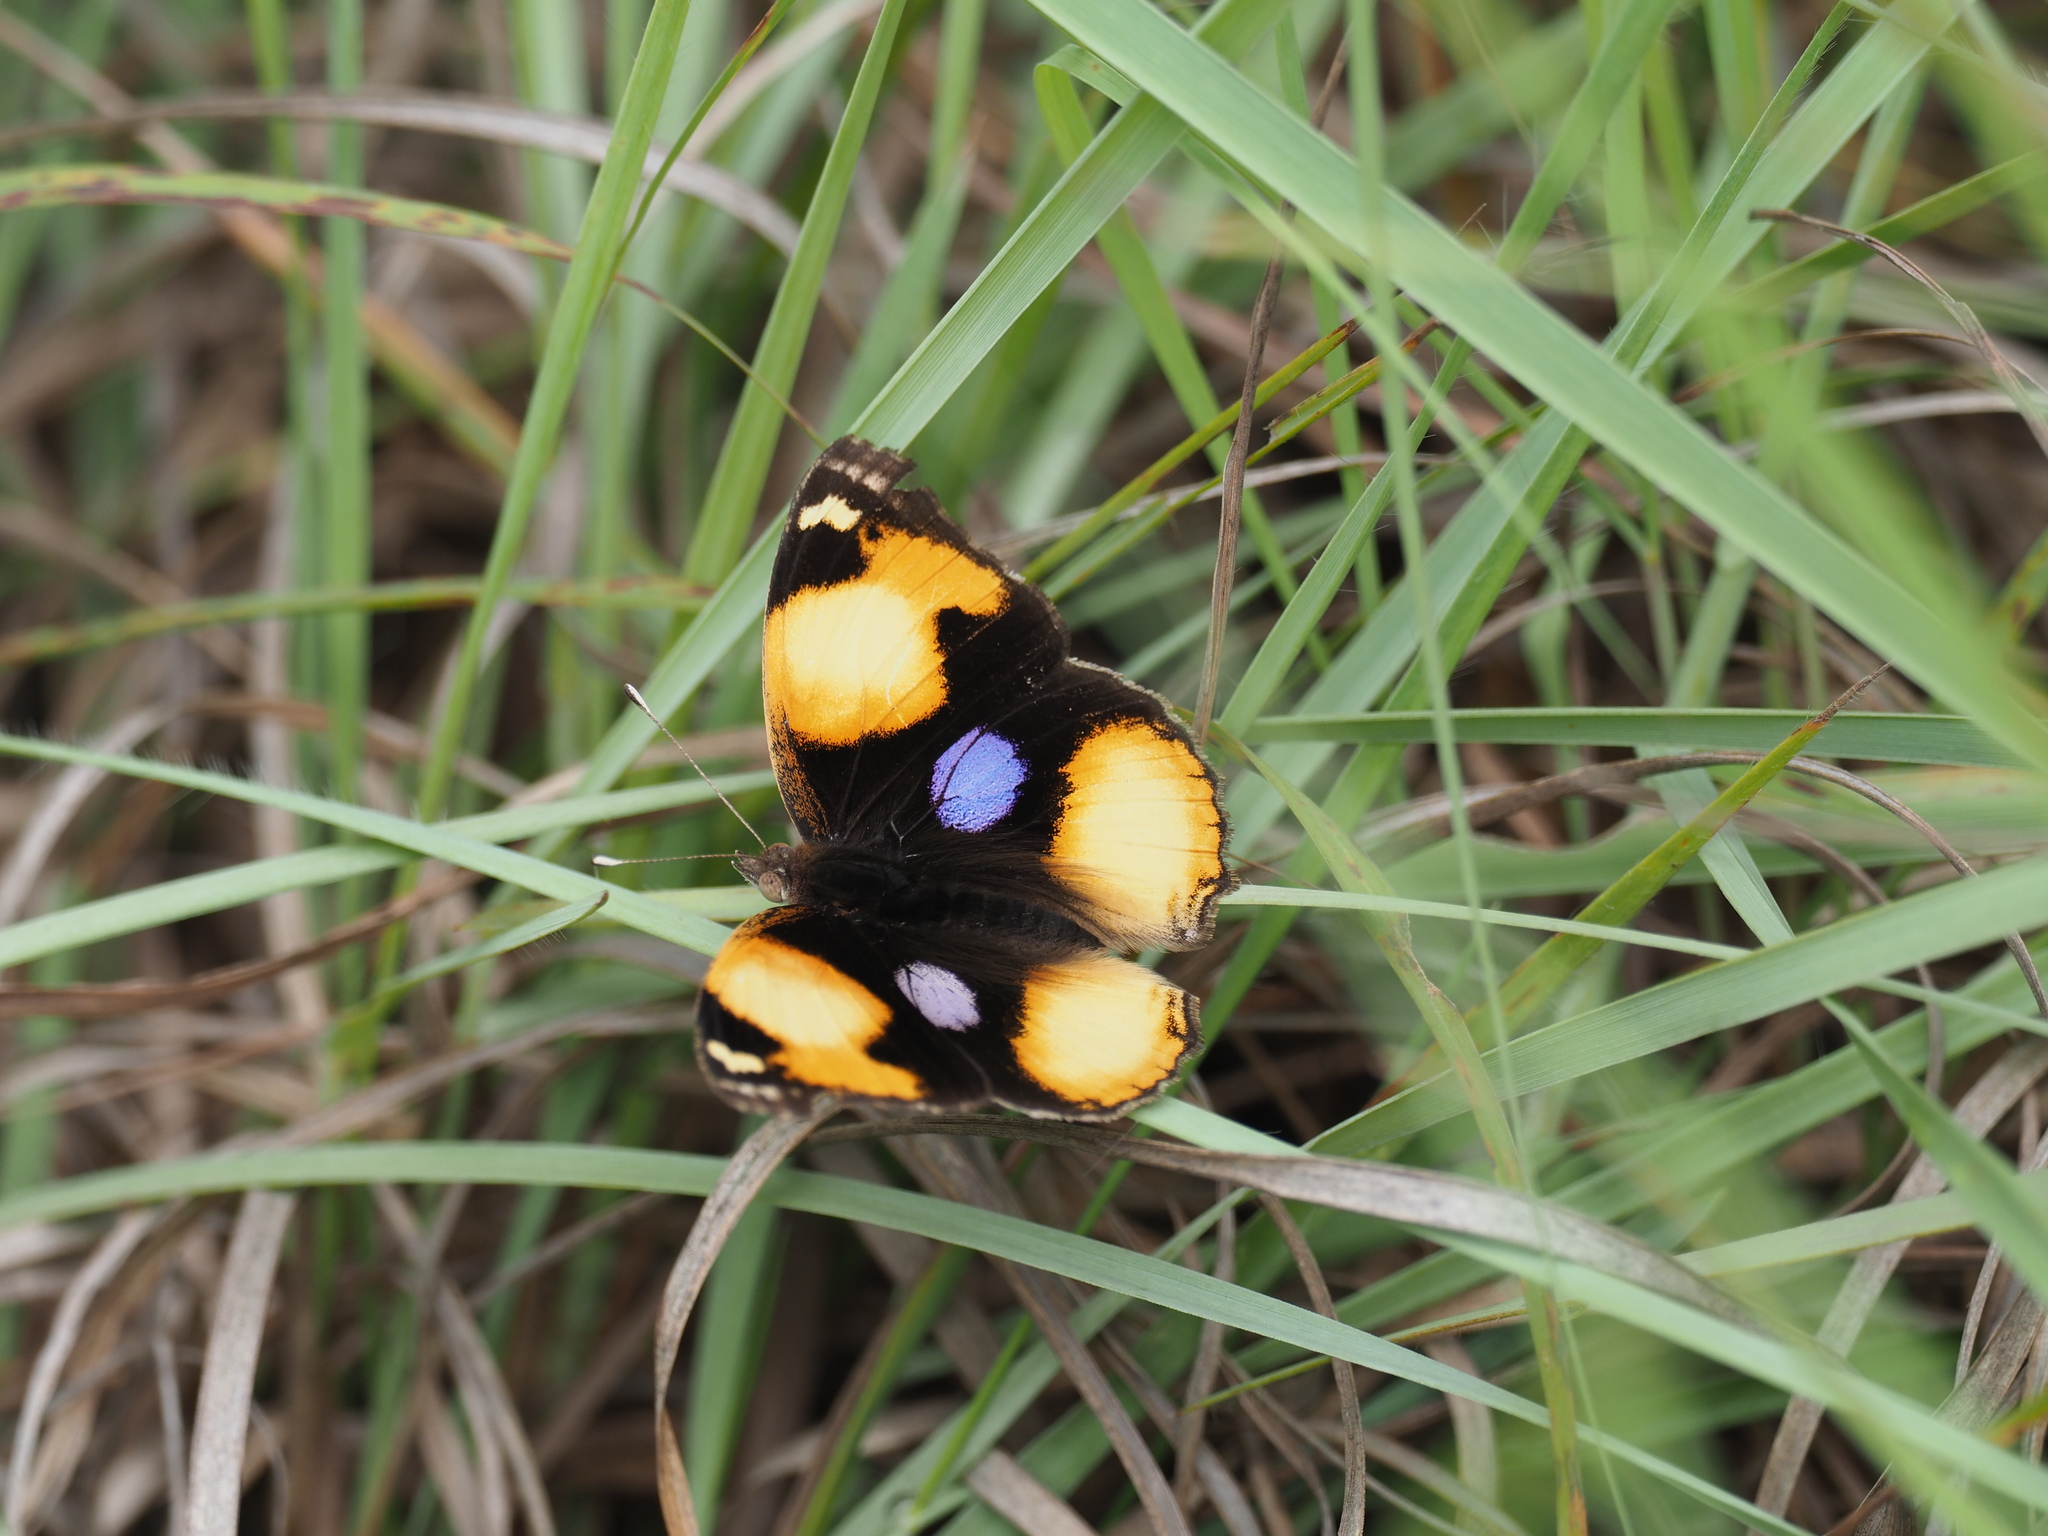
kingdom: Animalia
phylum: Arthropoda
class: Insecta
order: Lepidoptera
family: Nymphalidae
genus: Junonia
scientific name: Junonia hierta
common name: Yellow pansy
